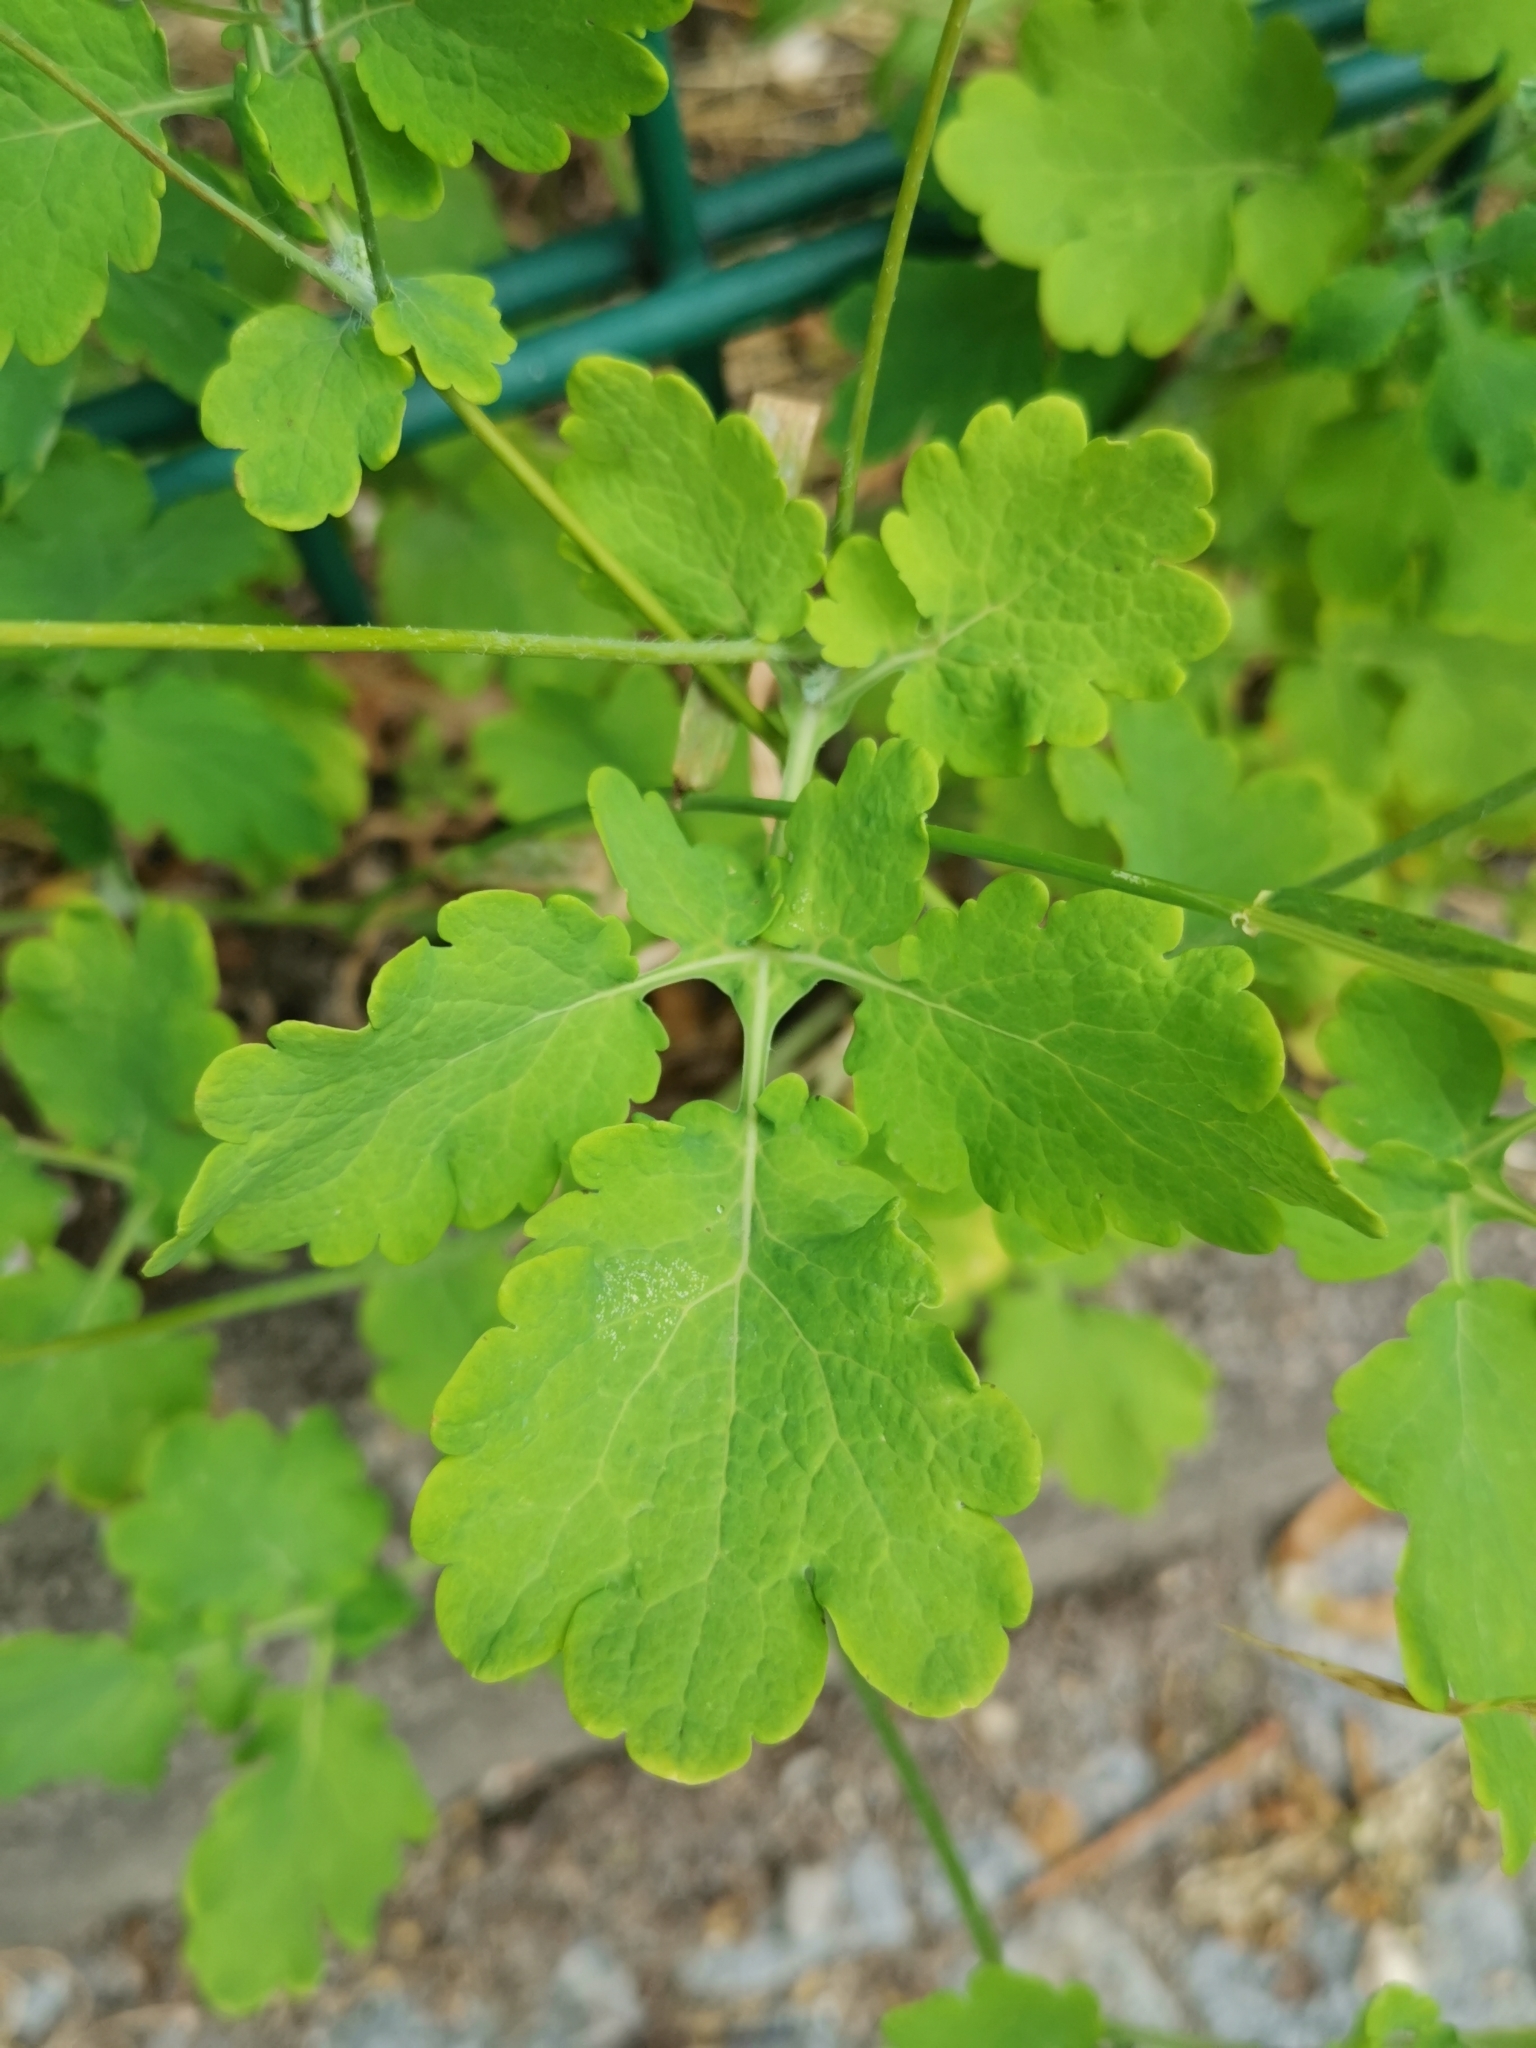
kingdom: Plantae
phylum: Tracheophyta
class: Magnoliopsida
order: Ranunculales
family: Papaveraceae
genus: Chelidonium
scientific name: Chelidonium majus
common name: Greater celandine
